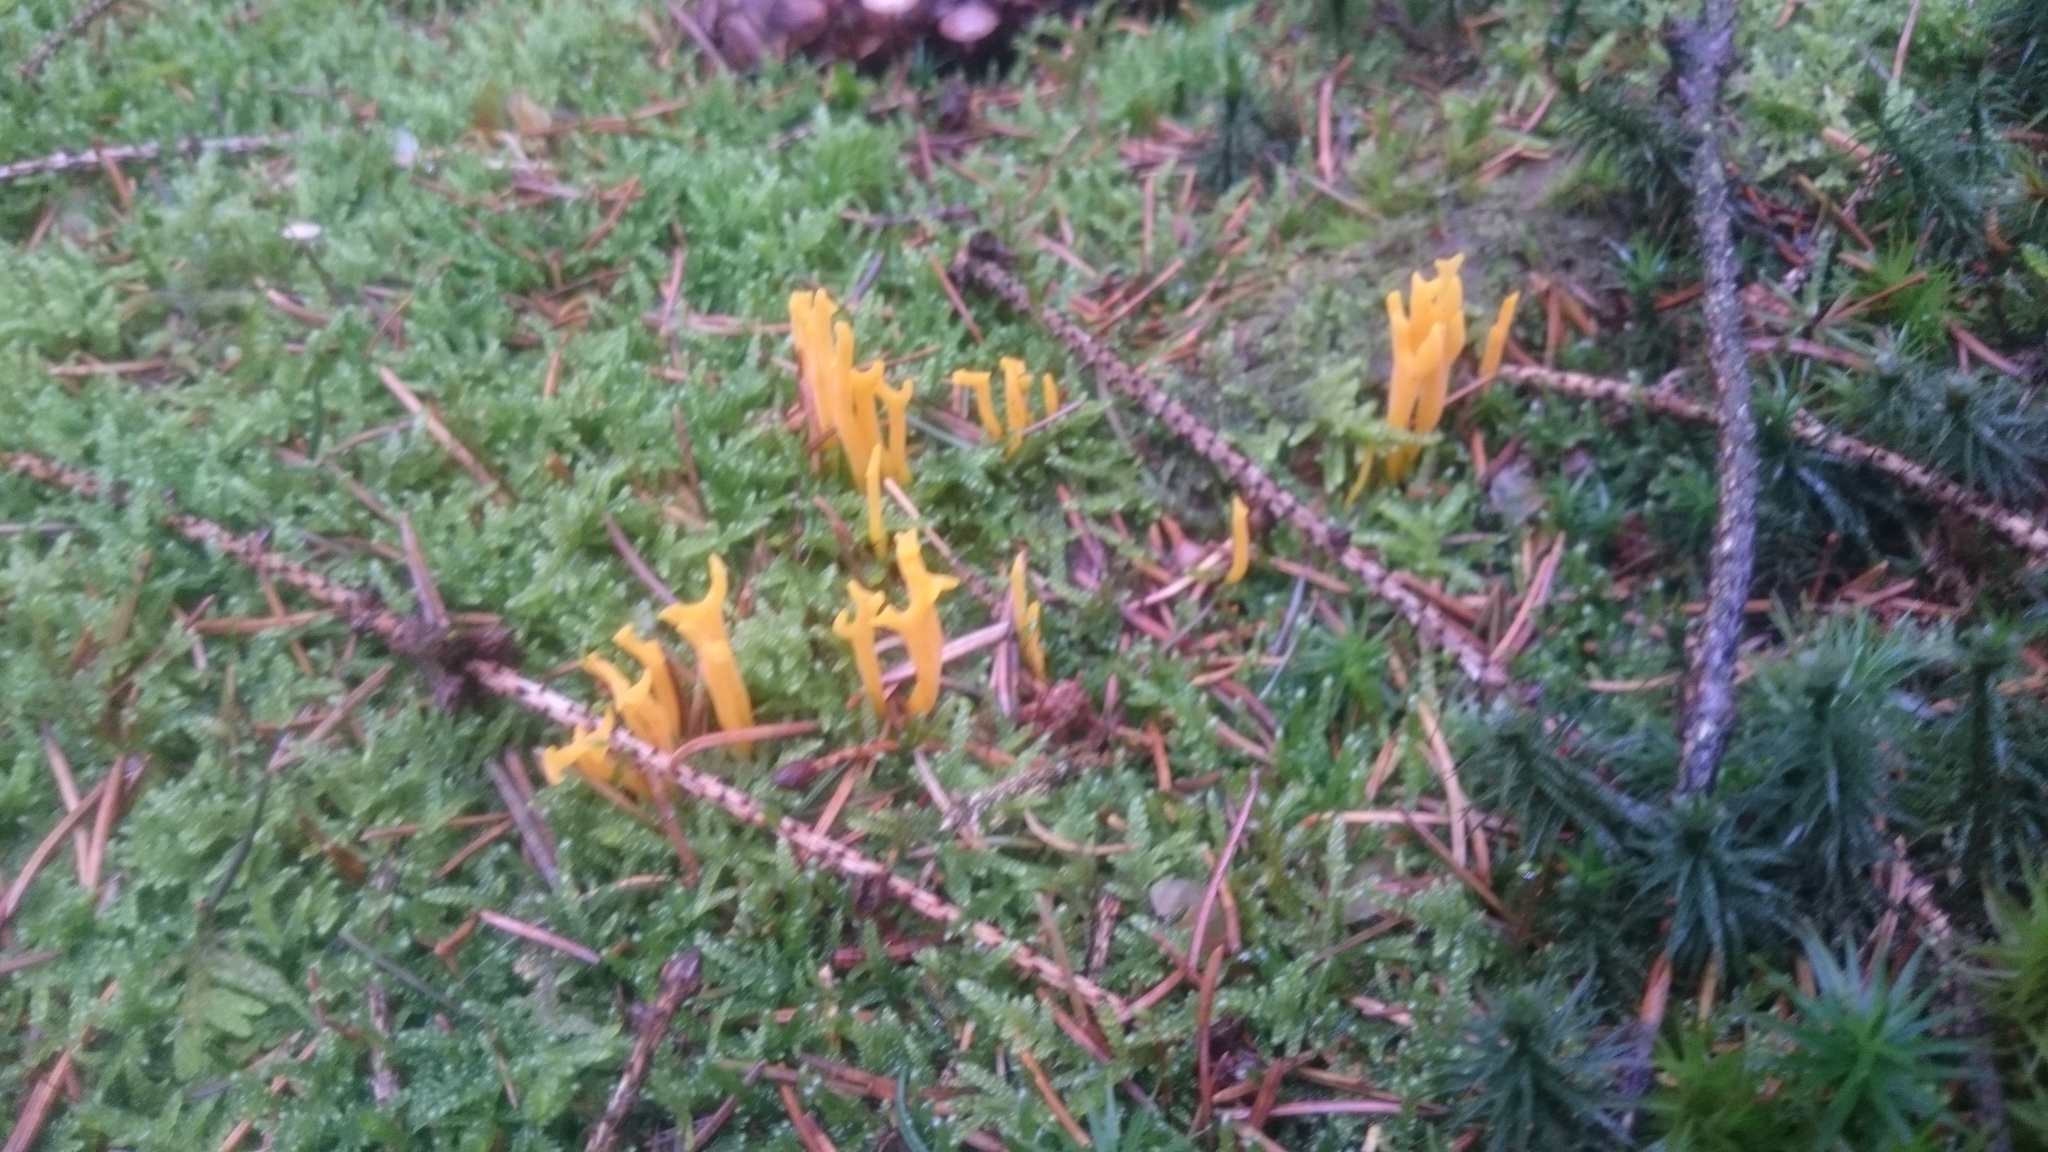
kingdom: Fungi
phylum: Basidiomycota
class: Dacrymycetes
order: Dacrymycetales
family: Dacrymycetaceae
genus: Calocera
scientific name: Calocera viscosa
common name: Yellow stagshorn
